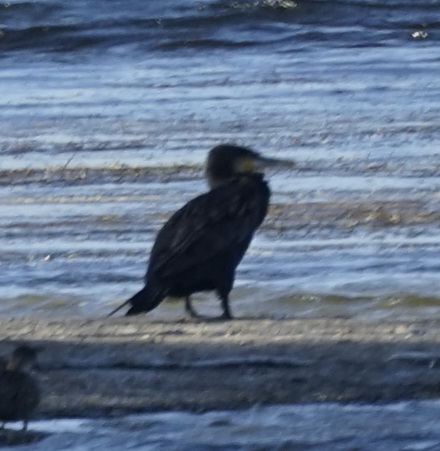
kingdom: Animalia
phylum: Chordata
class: Aves
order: Suliformes
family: Phalacrocoracidae
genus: Phalacrocorax
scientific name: Phalacrocorax carbo
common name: Great cormorant
